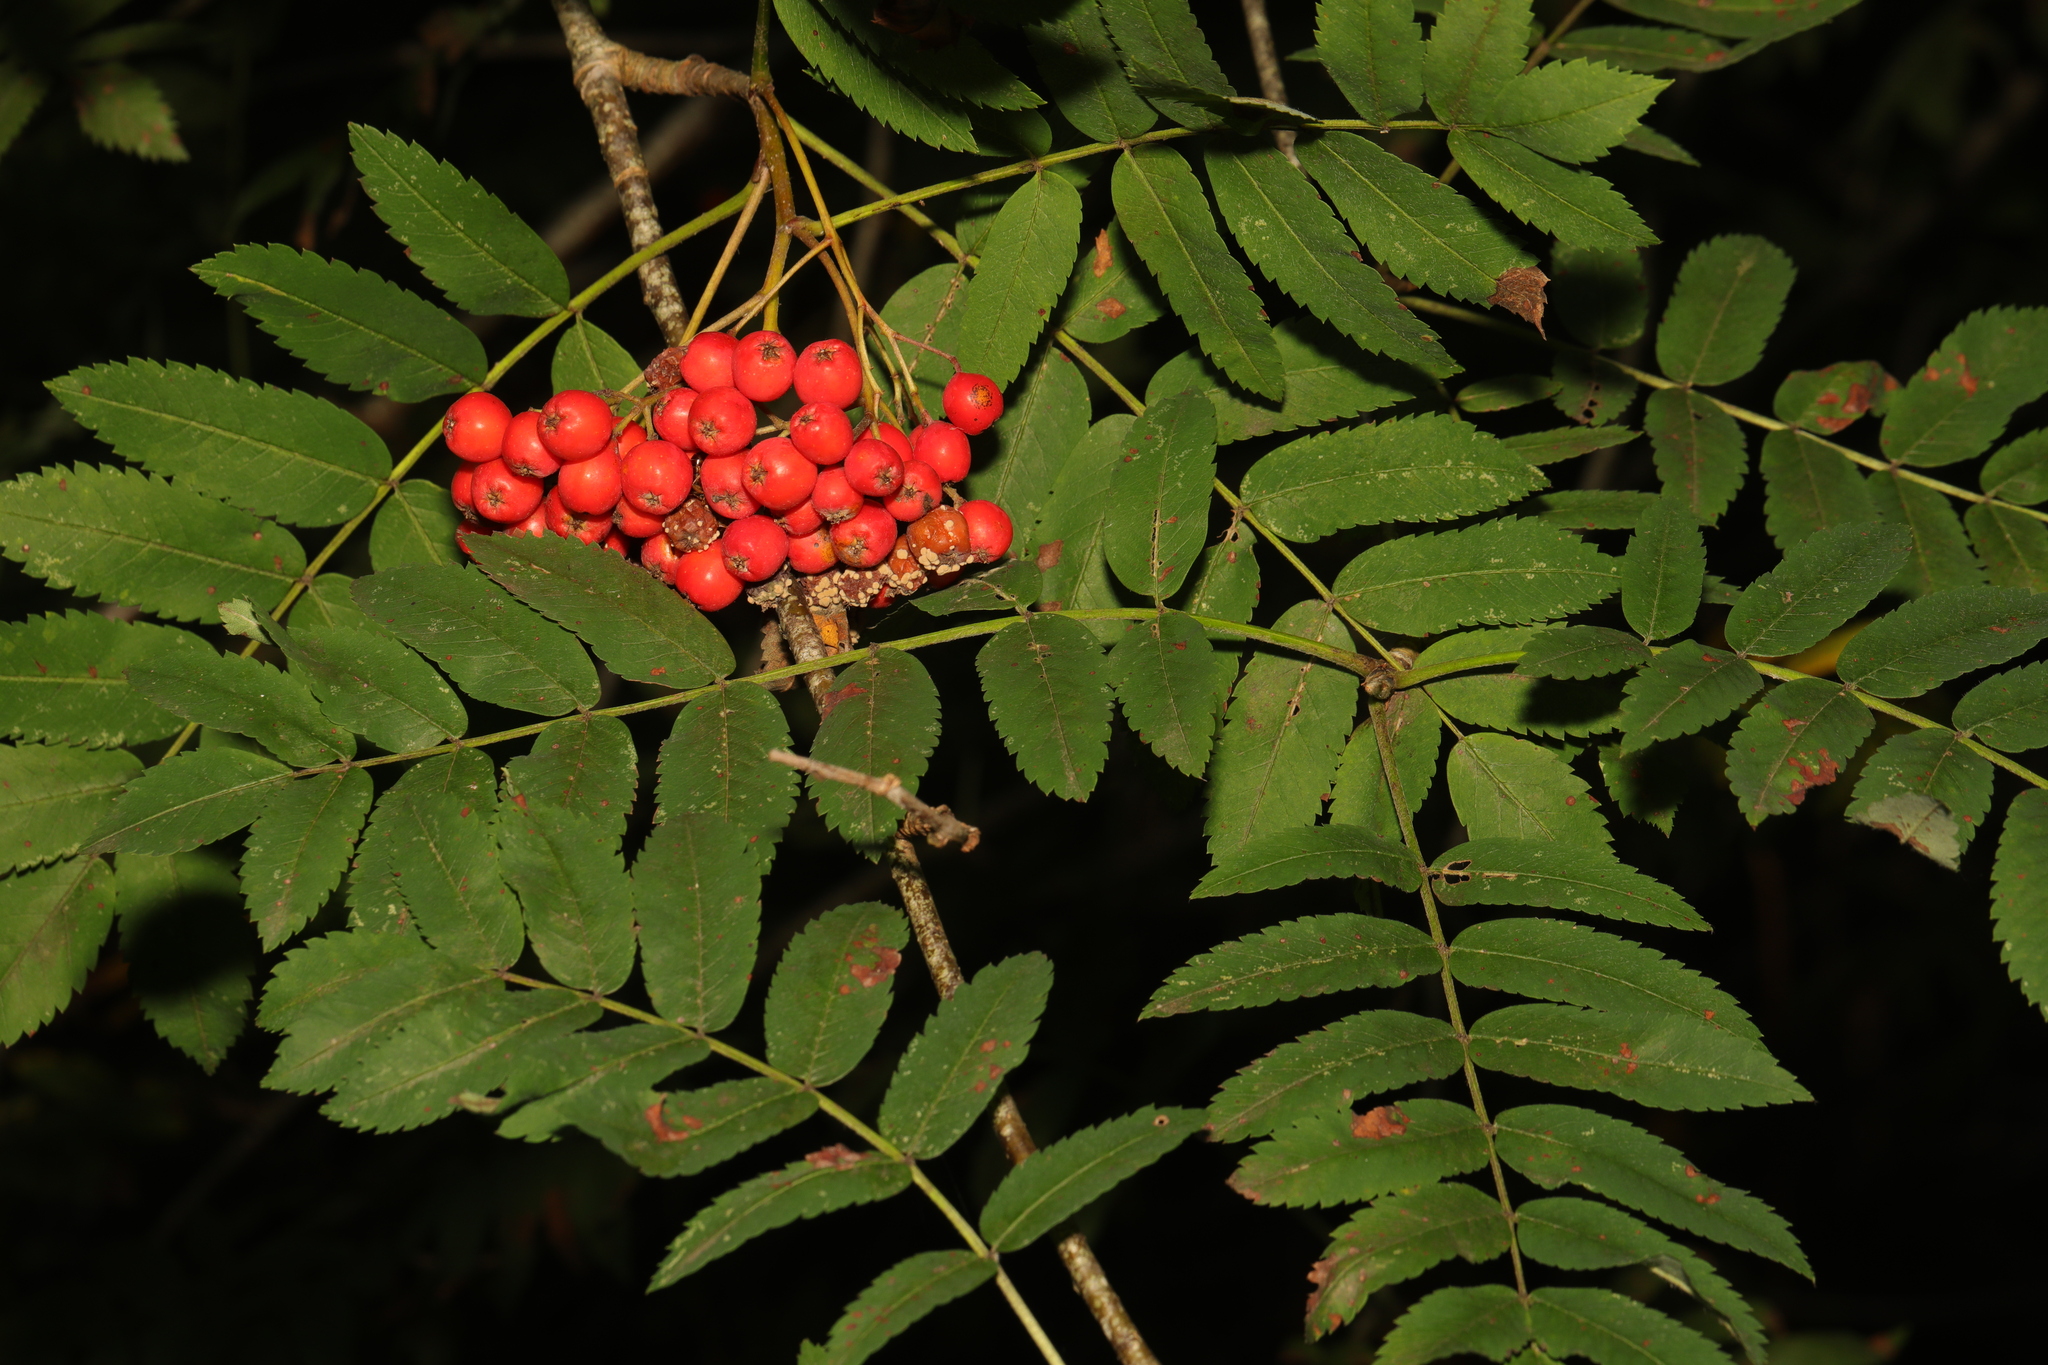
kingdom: Plantae
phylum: Tracheophyta
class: Magnoliopsida
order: Rosales
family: Rosaceae
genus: Sorbus
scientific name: Sorbus aucuparia
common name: Rowan
